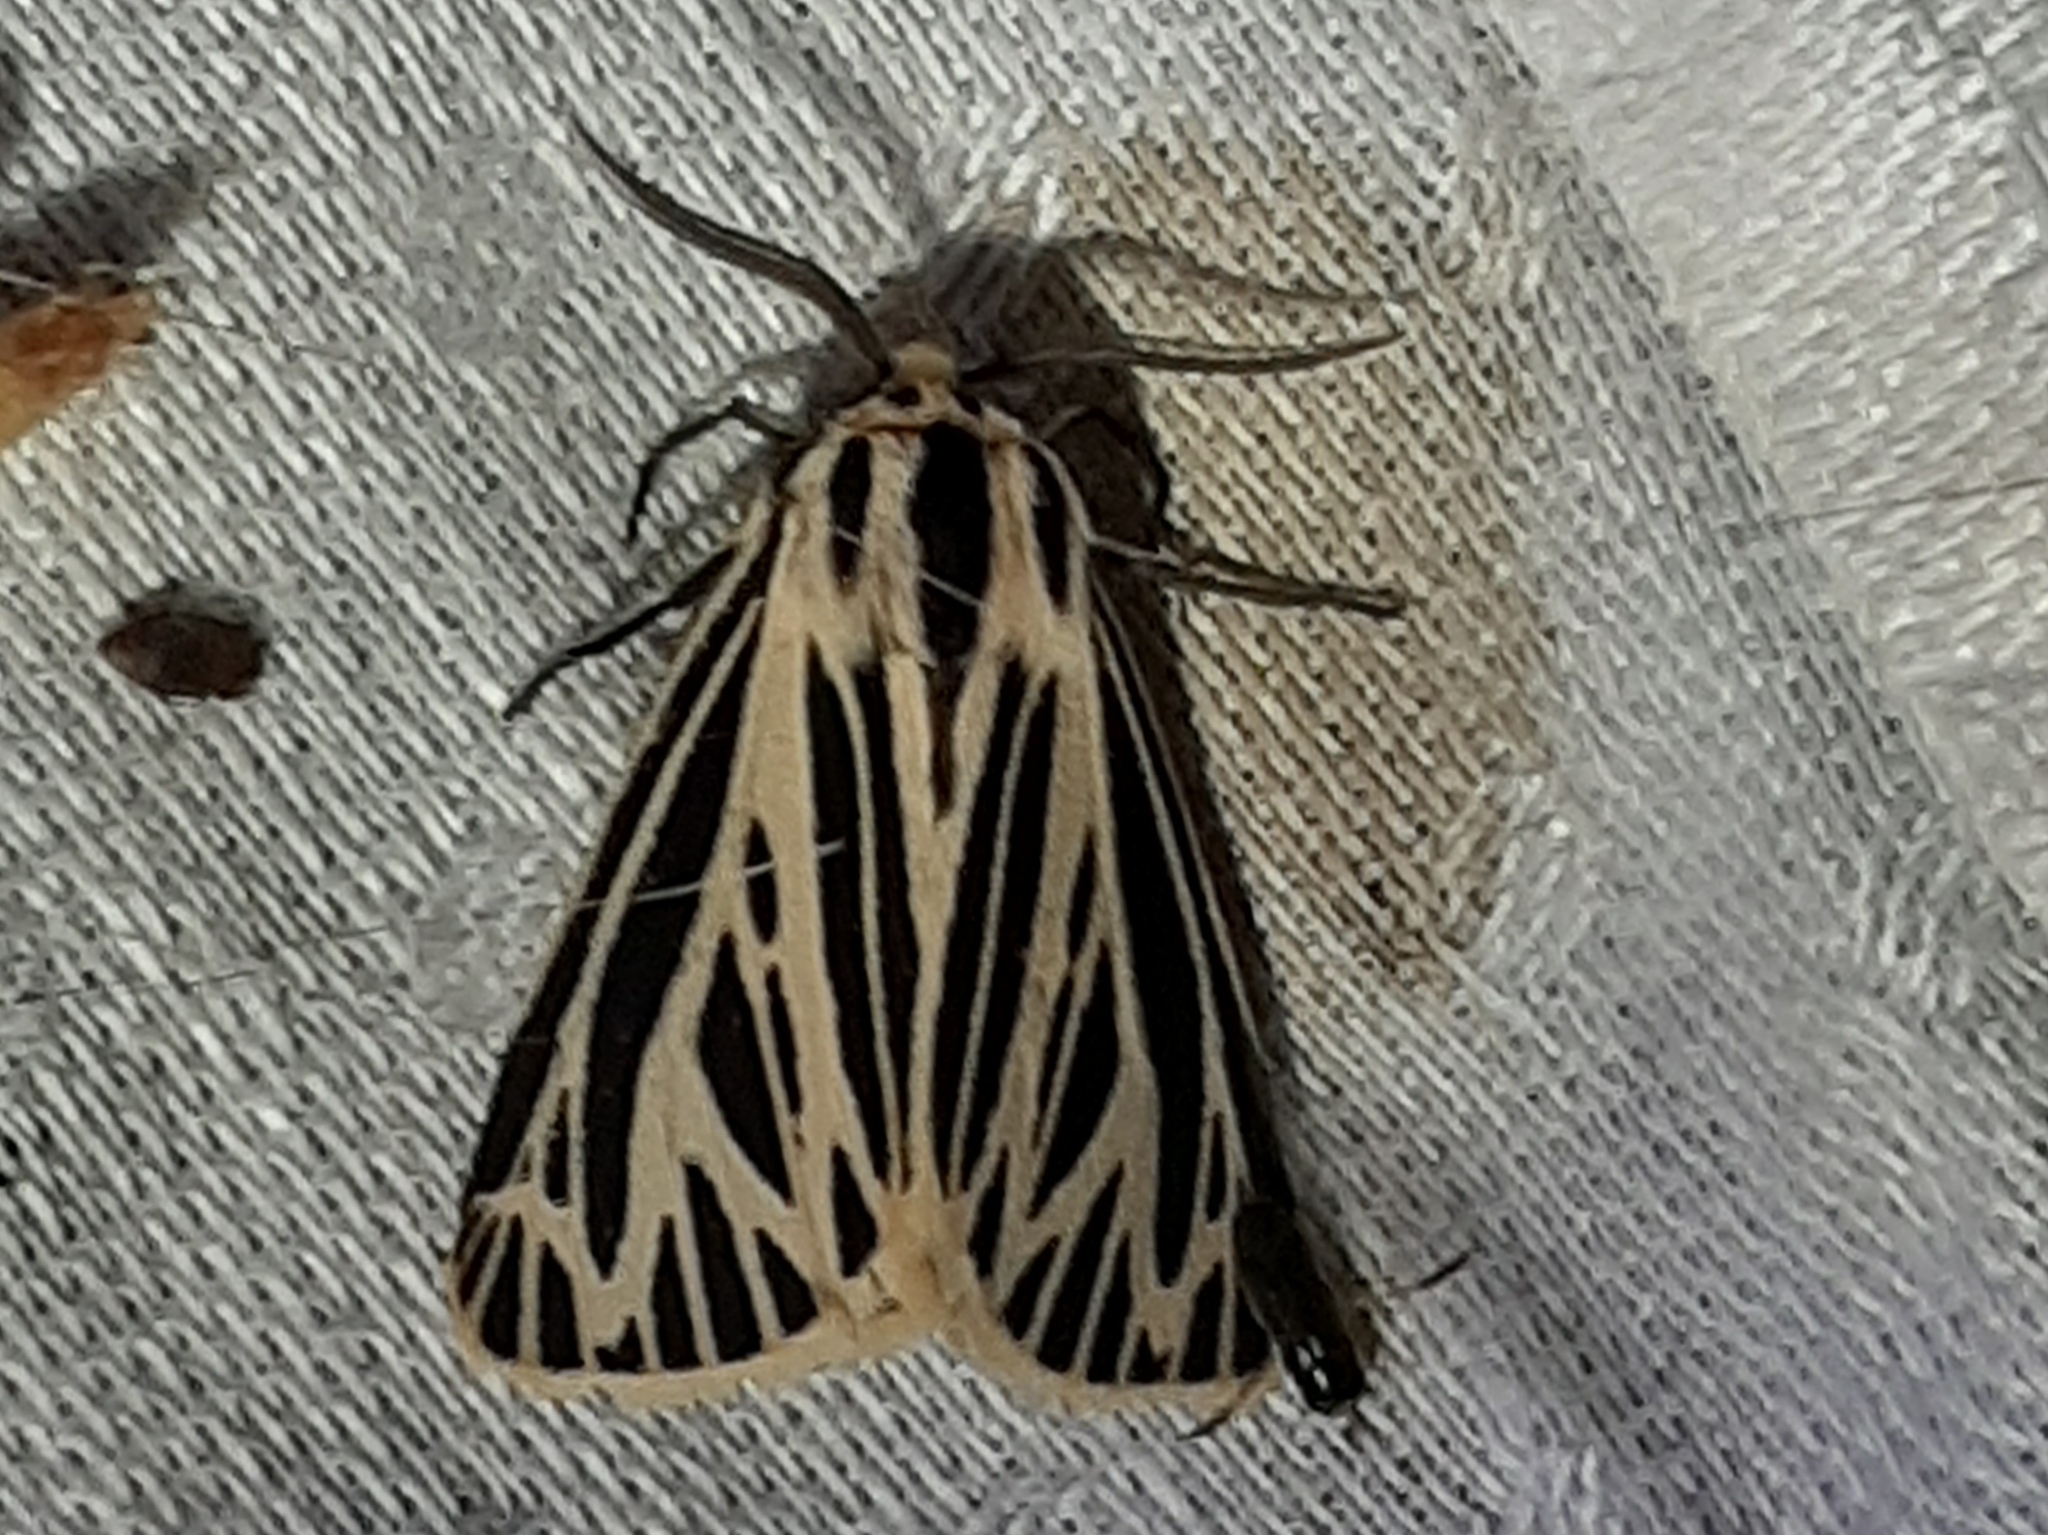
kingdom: Animalia
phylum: Arthropoda
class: Insecta
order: Lepidoptera
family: Erebidae
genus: Grammia
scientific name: Grammia virguncula
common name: Little tiger moth
